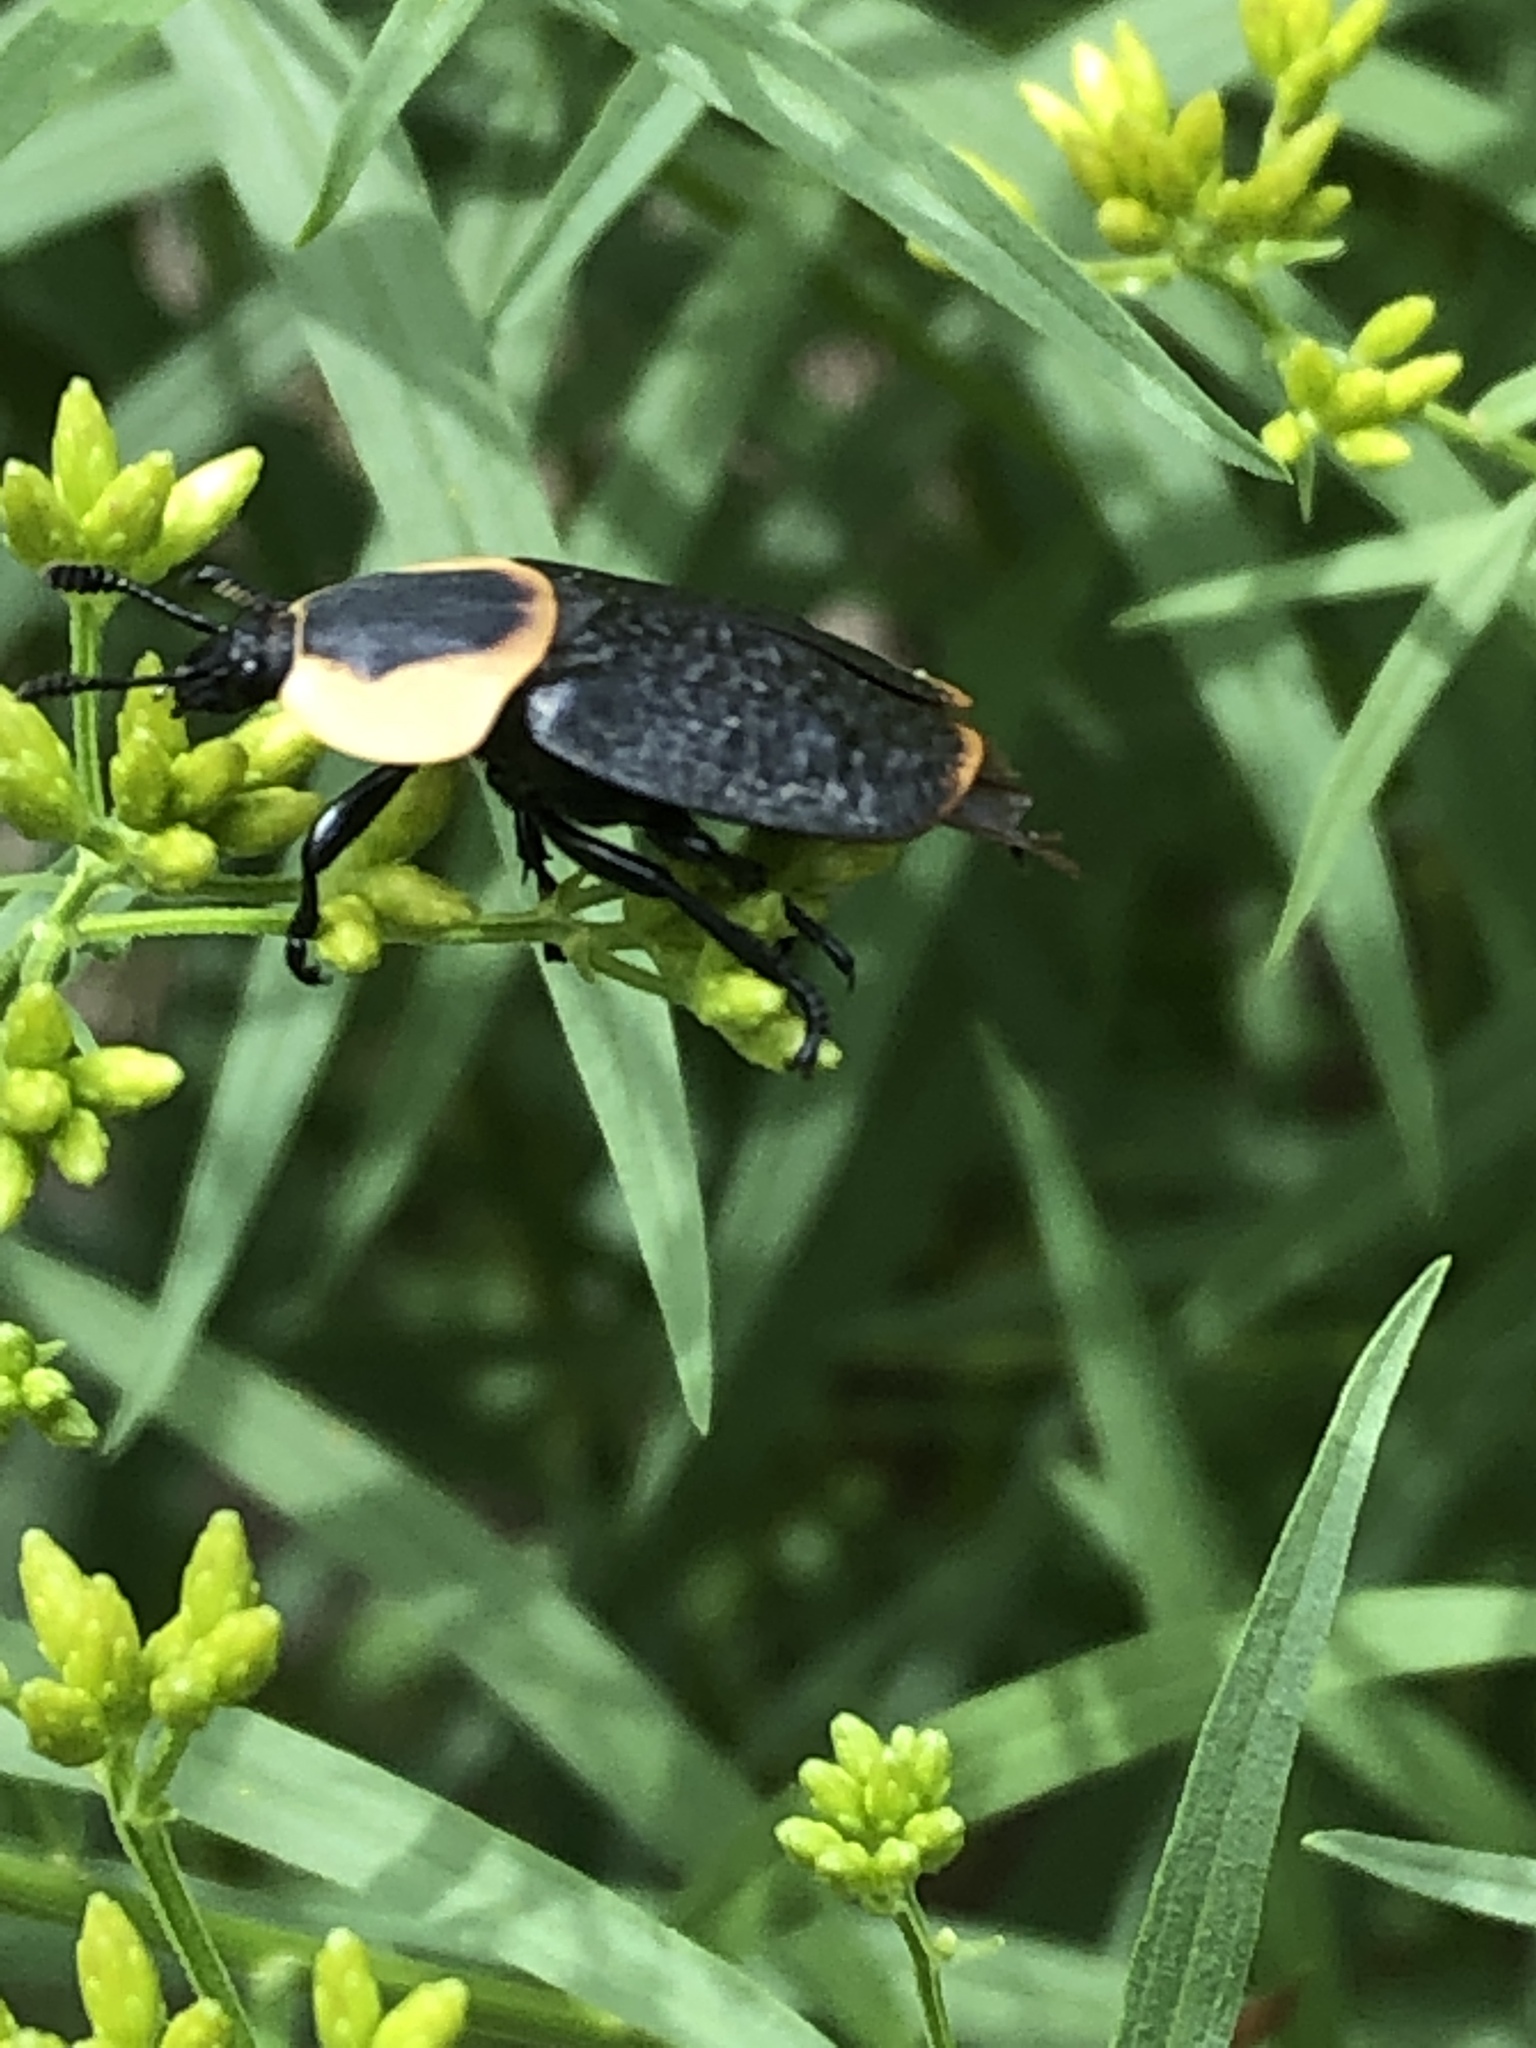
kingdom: Animalia
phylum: Arthropoda
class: Insecta
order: Coleoptera
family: Staphylinidae
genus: Necrophila
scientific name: Necrophila americana
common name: American carrion beetle
